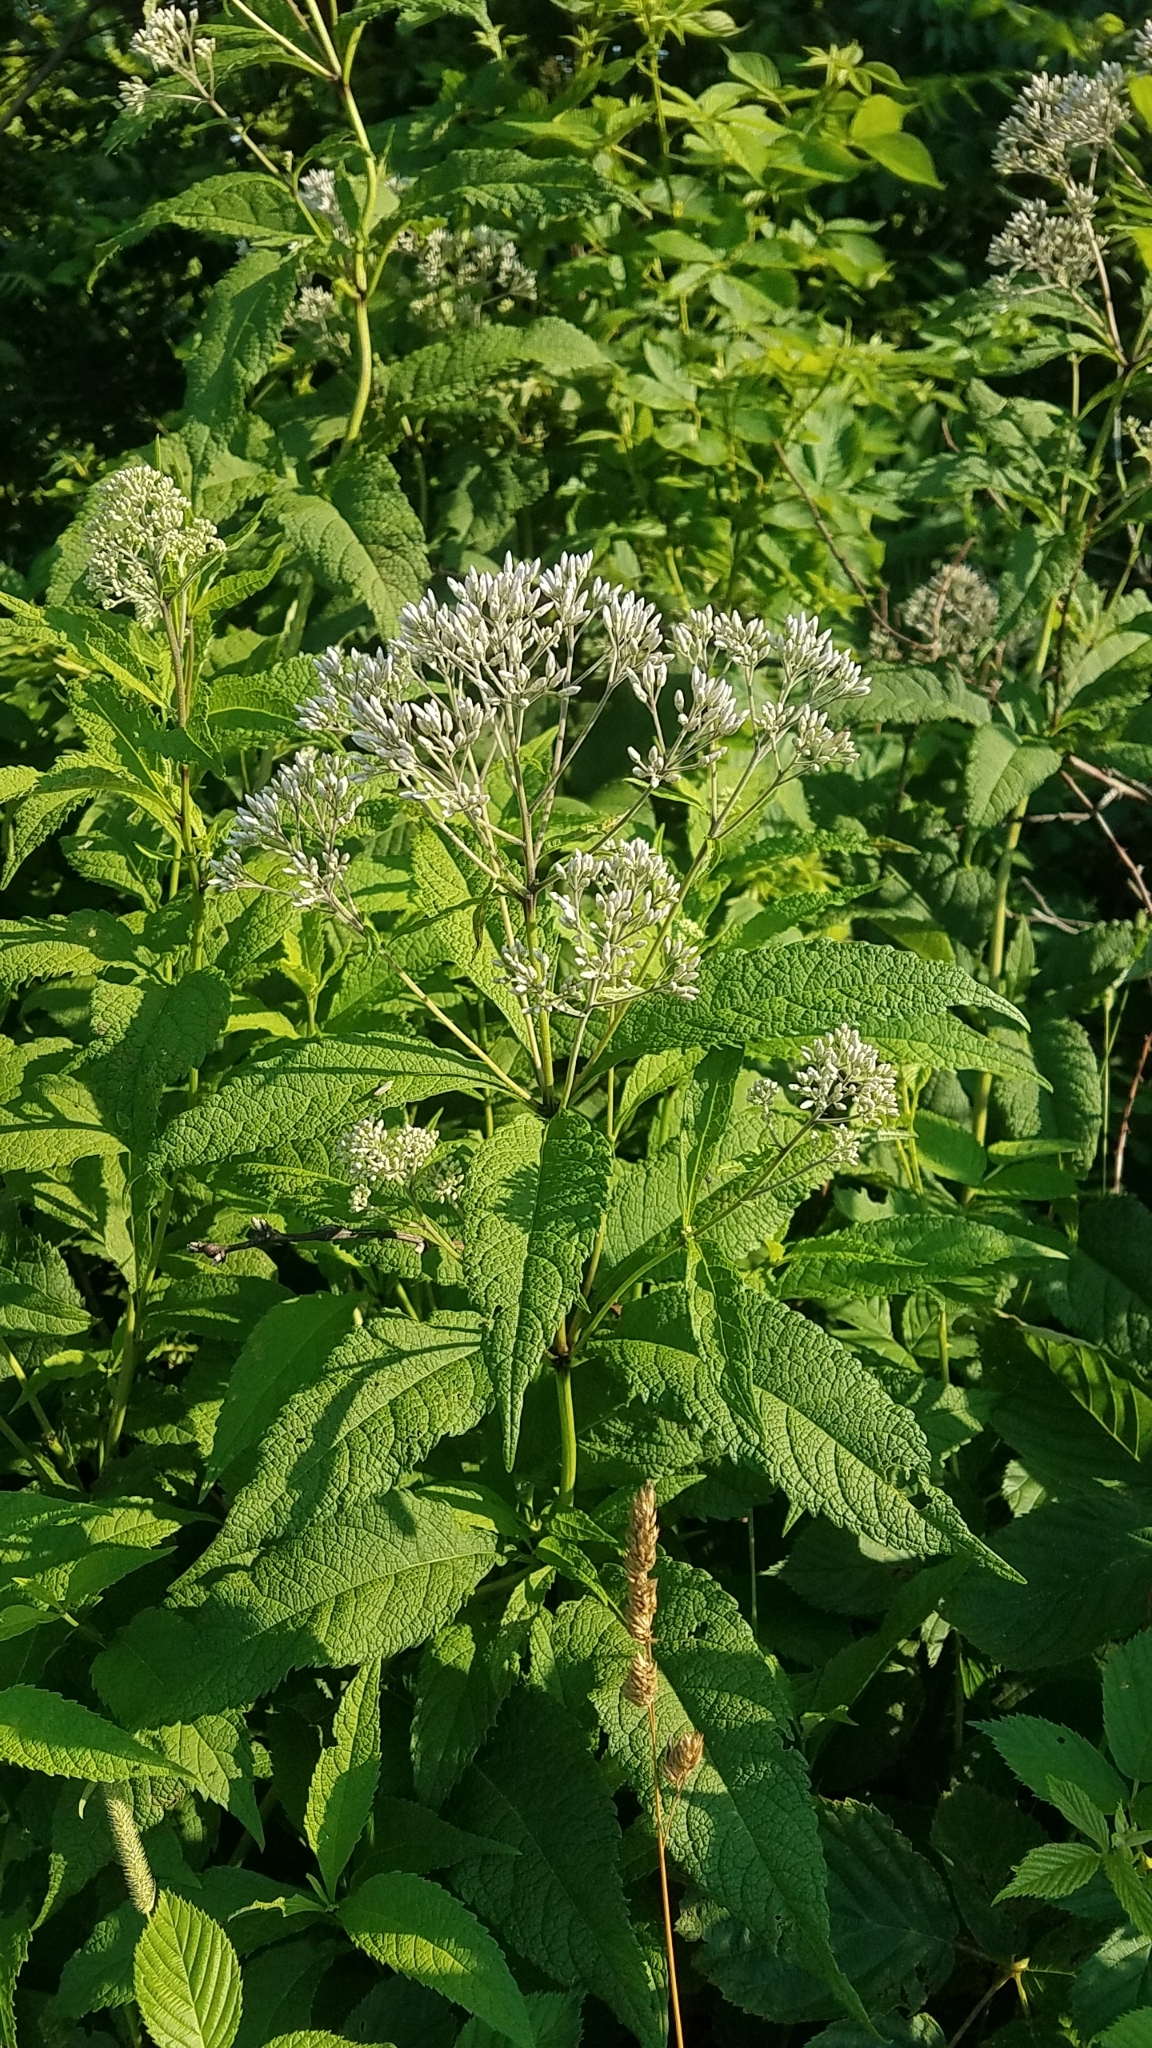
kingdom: Plantae
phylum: Tracheophyta
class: Magnoliopsida
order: Asterales
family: Asteraceae
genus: Eutrochium
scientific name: Eutrochium purpureum
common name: Gravelroot
